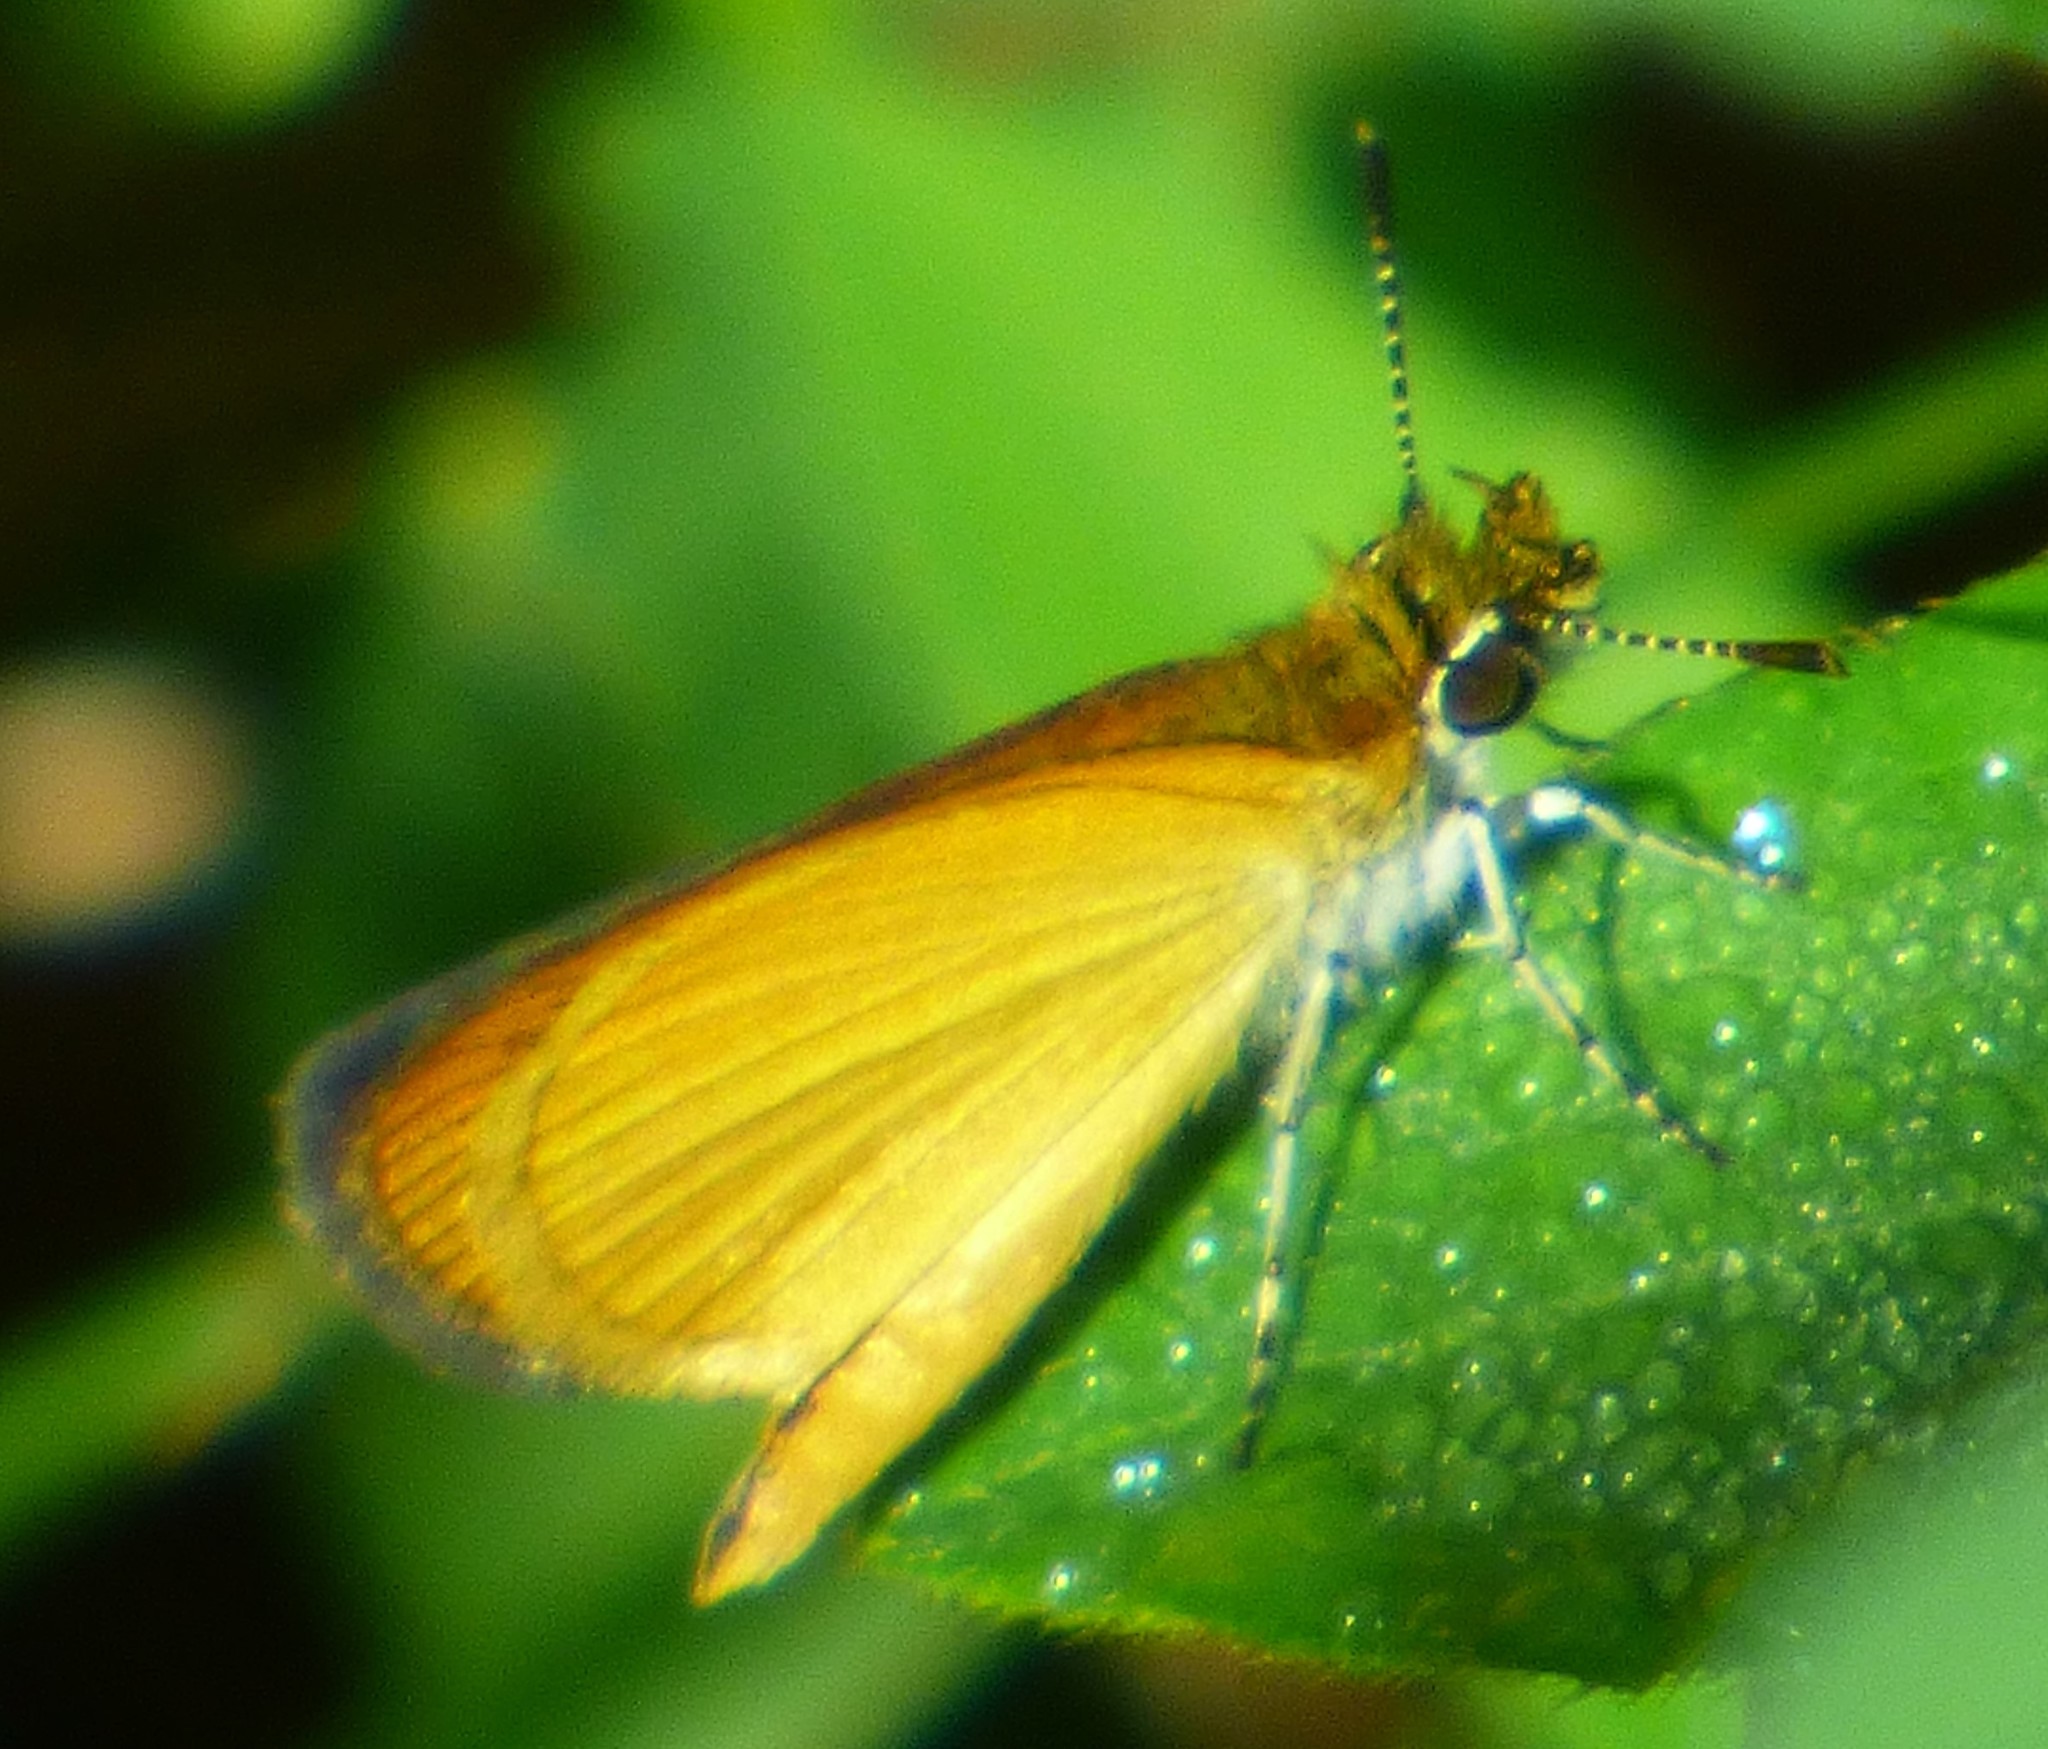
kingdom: Animalia
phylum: Arthropoda
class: Insecta
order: Lepidoptera
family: Hesperiidae
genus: Ancyloxypha
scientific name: Ancyloxypha numitor
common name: Least skipper
